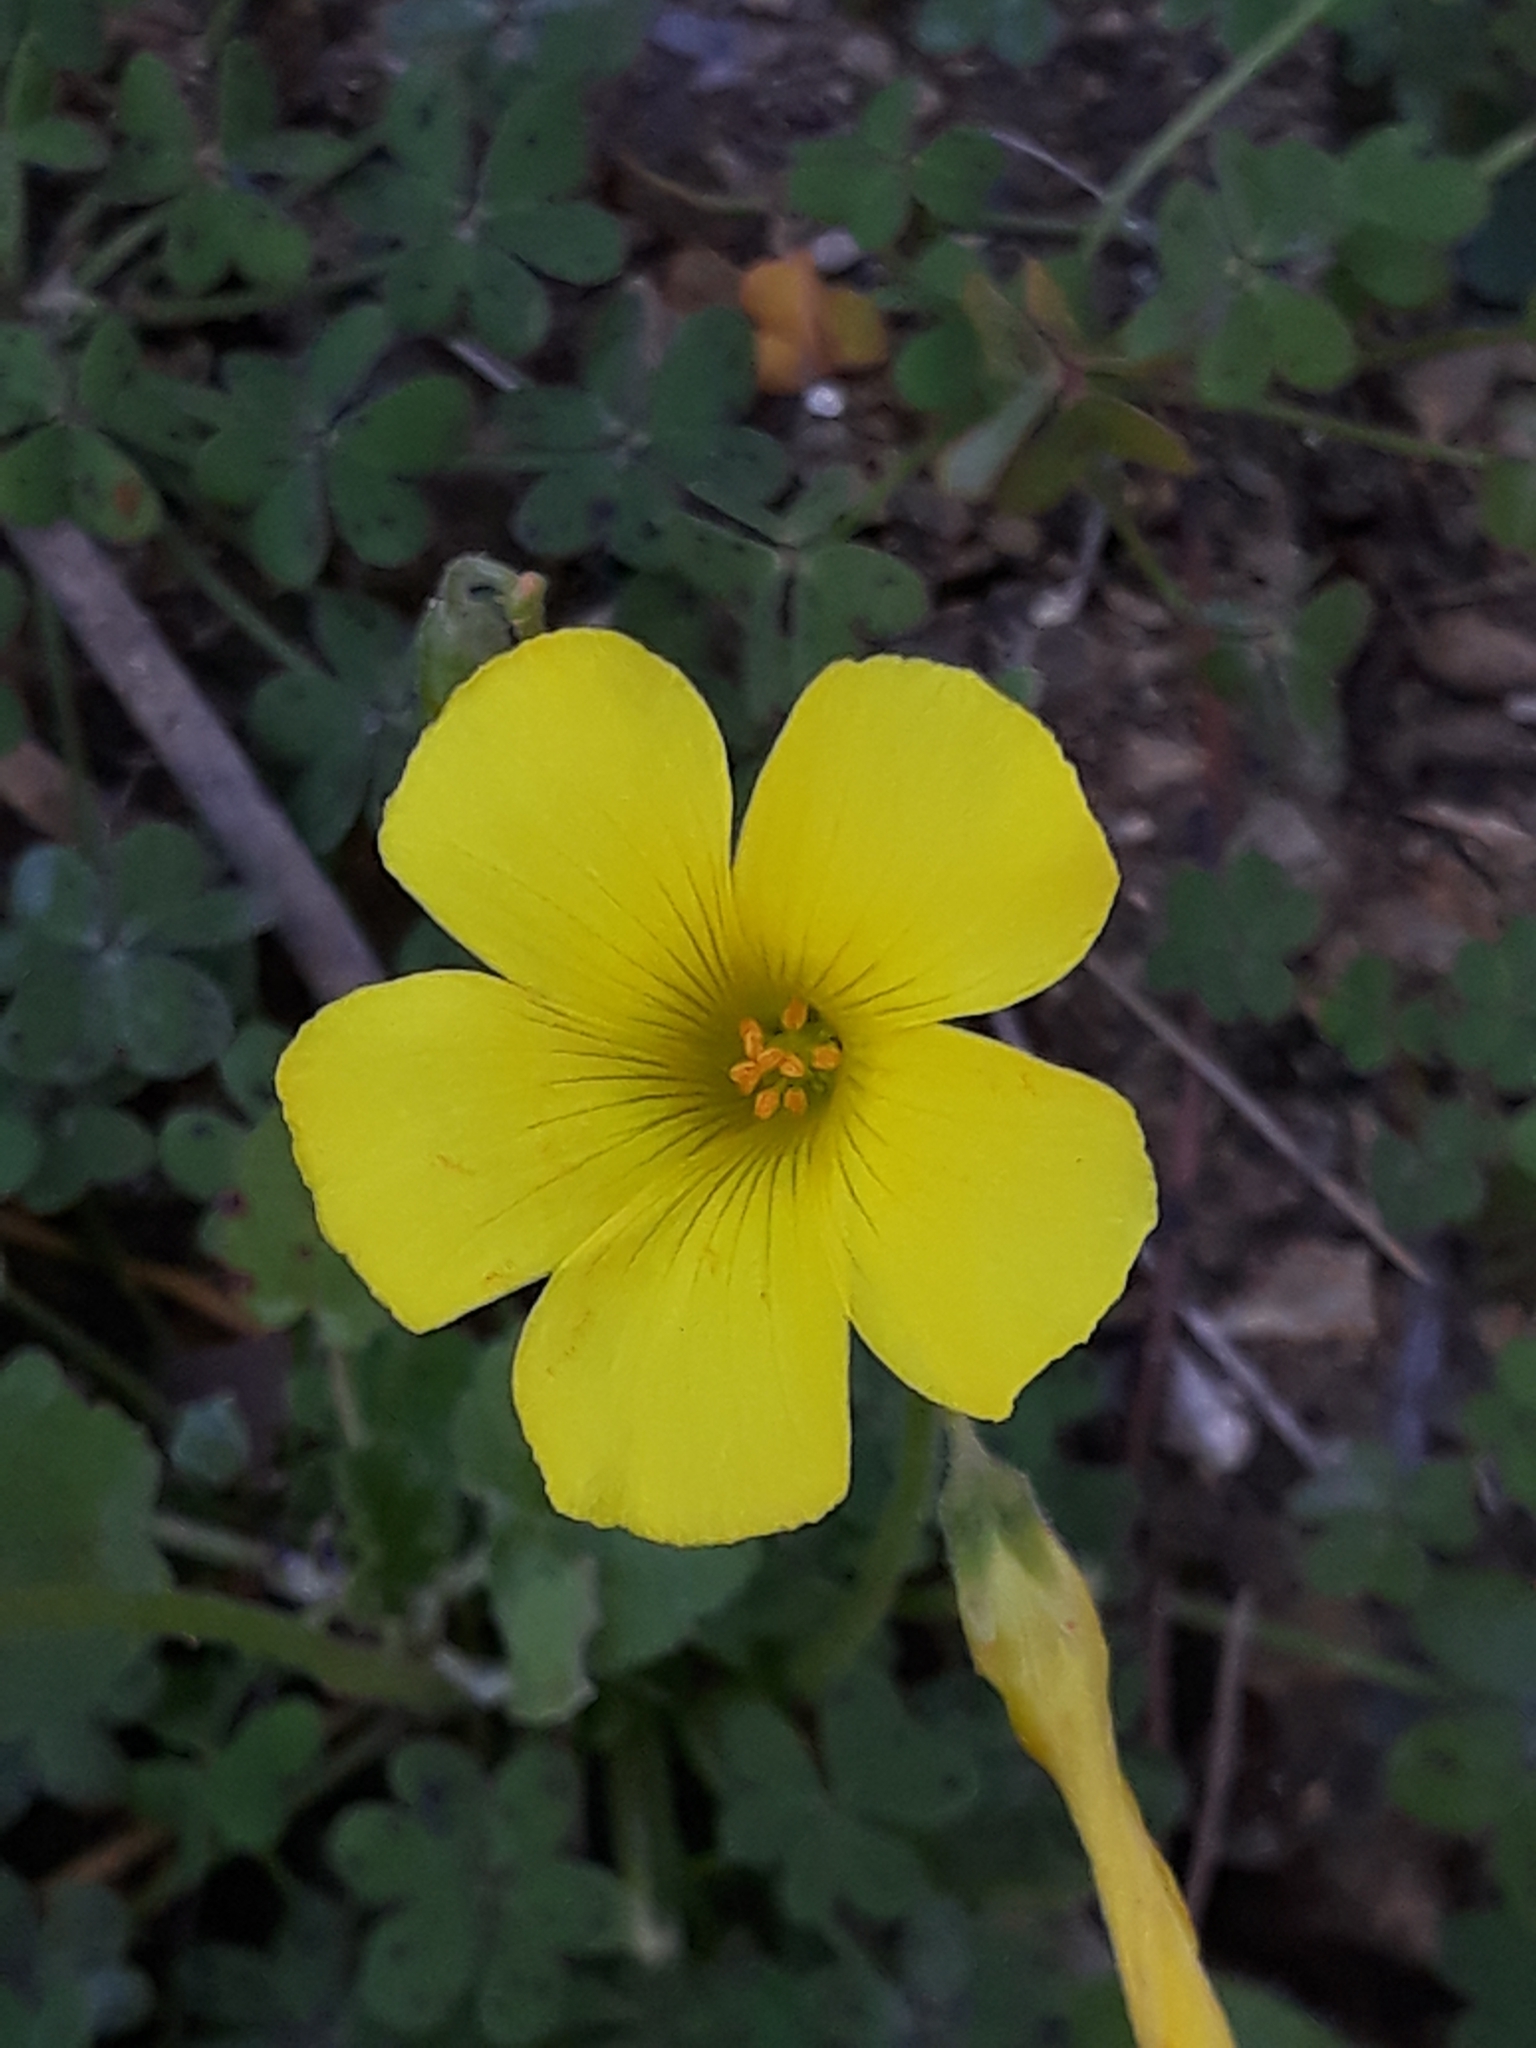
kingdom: Plantae
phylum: Tracheophyta
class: Magnoliopsida
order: Oxalidales
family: Oxalidaceae
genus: Oxalis
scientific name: Oxalis pes-caprae
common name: Bermuda-buttercup
